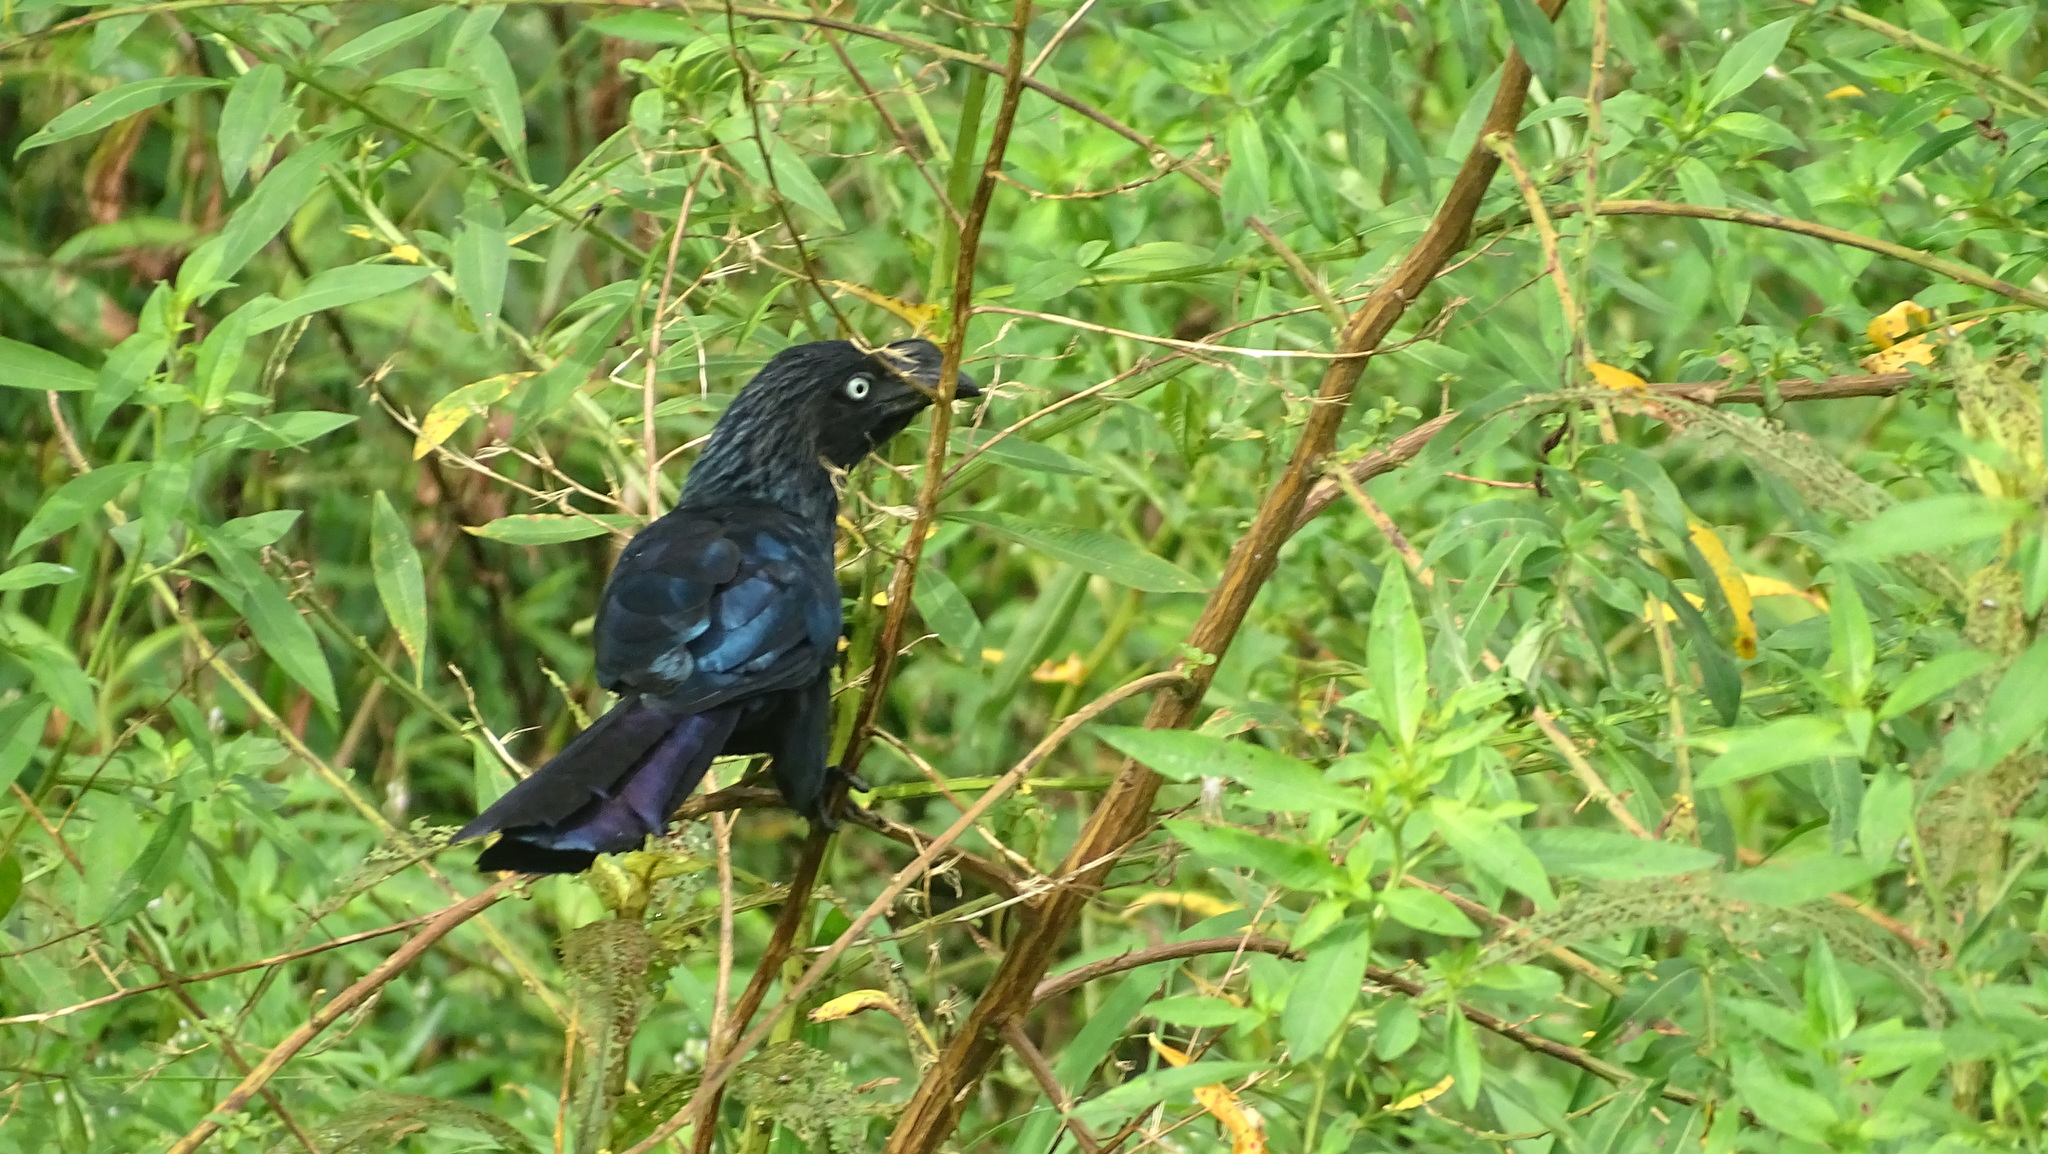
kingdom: Animalia
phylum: Chordata
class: Aves
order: Cuculiformes
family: Cuculidae
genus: Crotophaga
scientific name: Crotophaga major
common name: Greater ani
